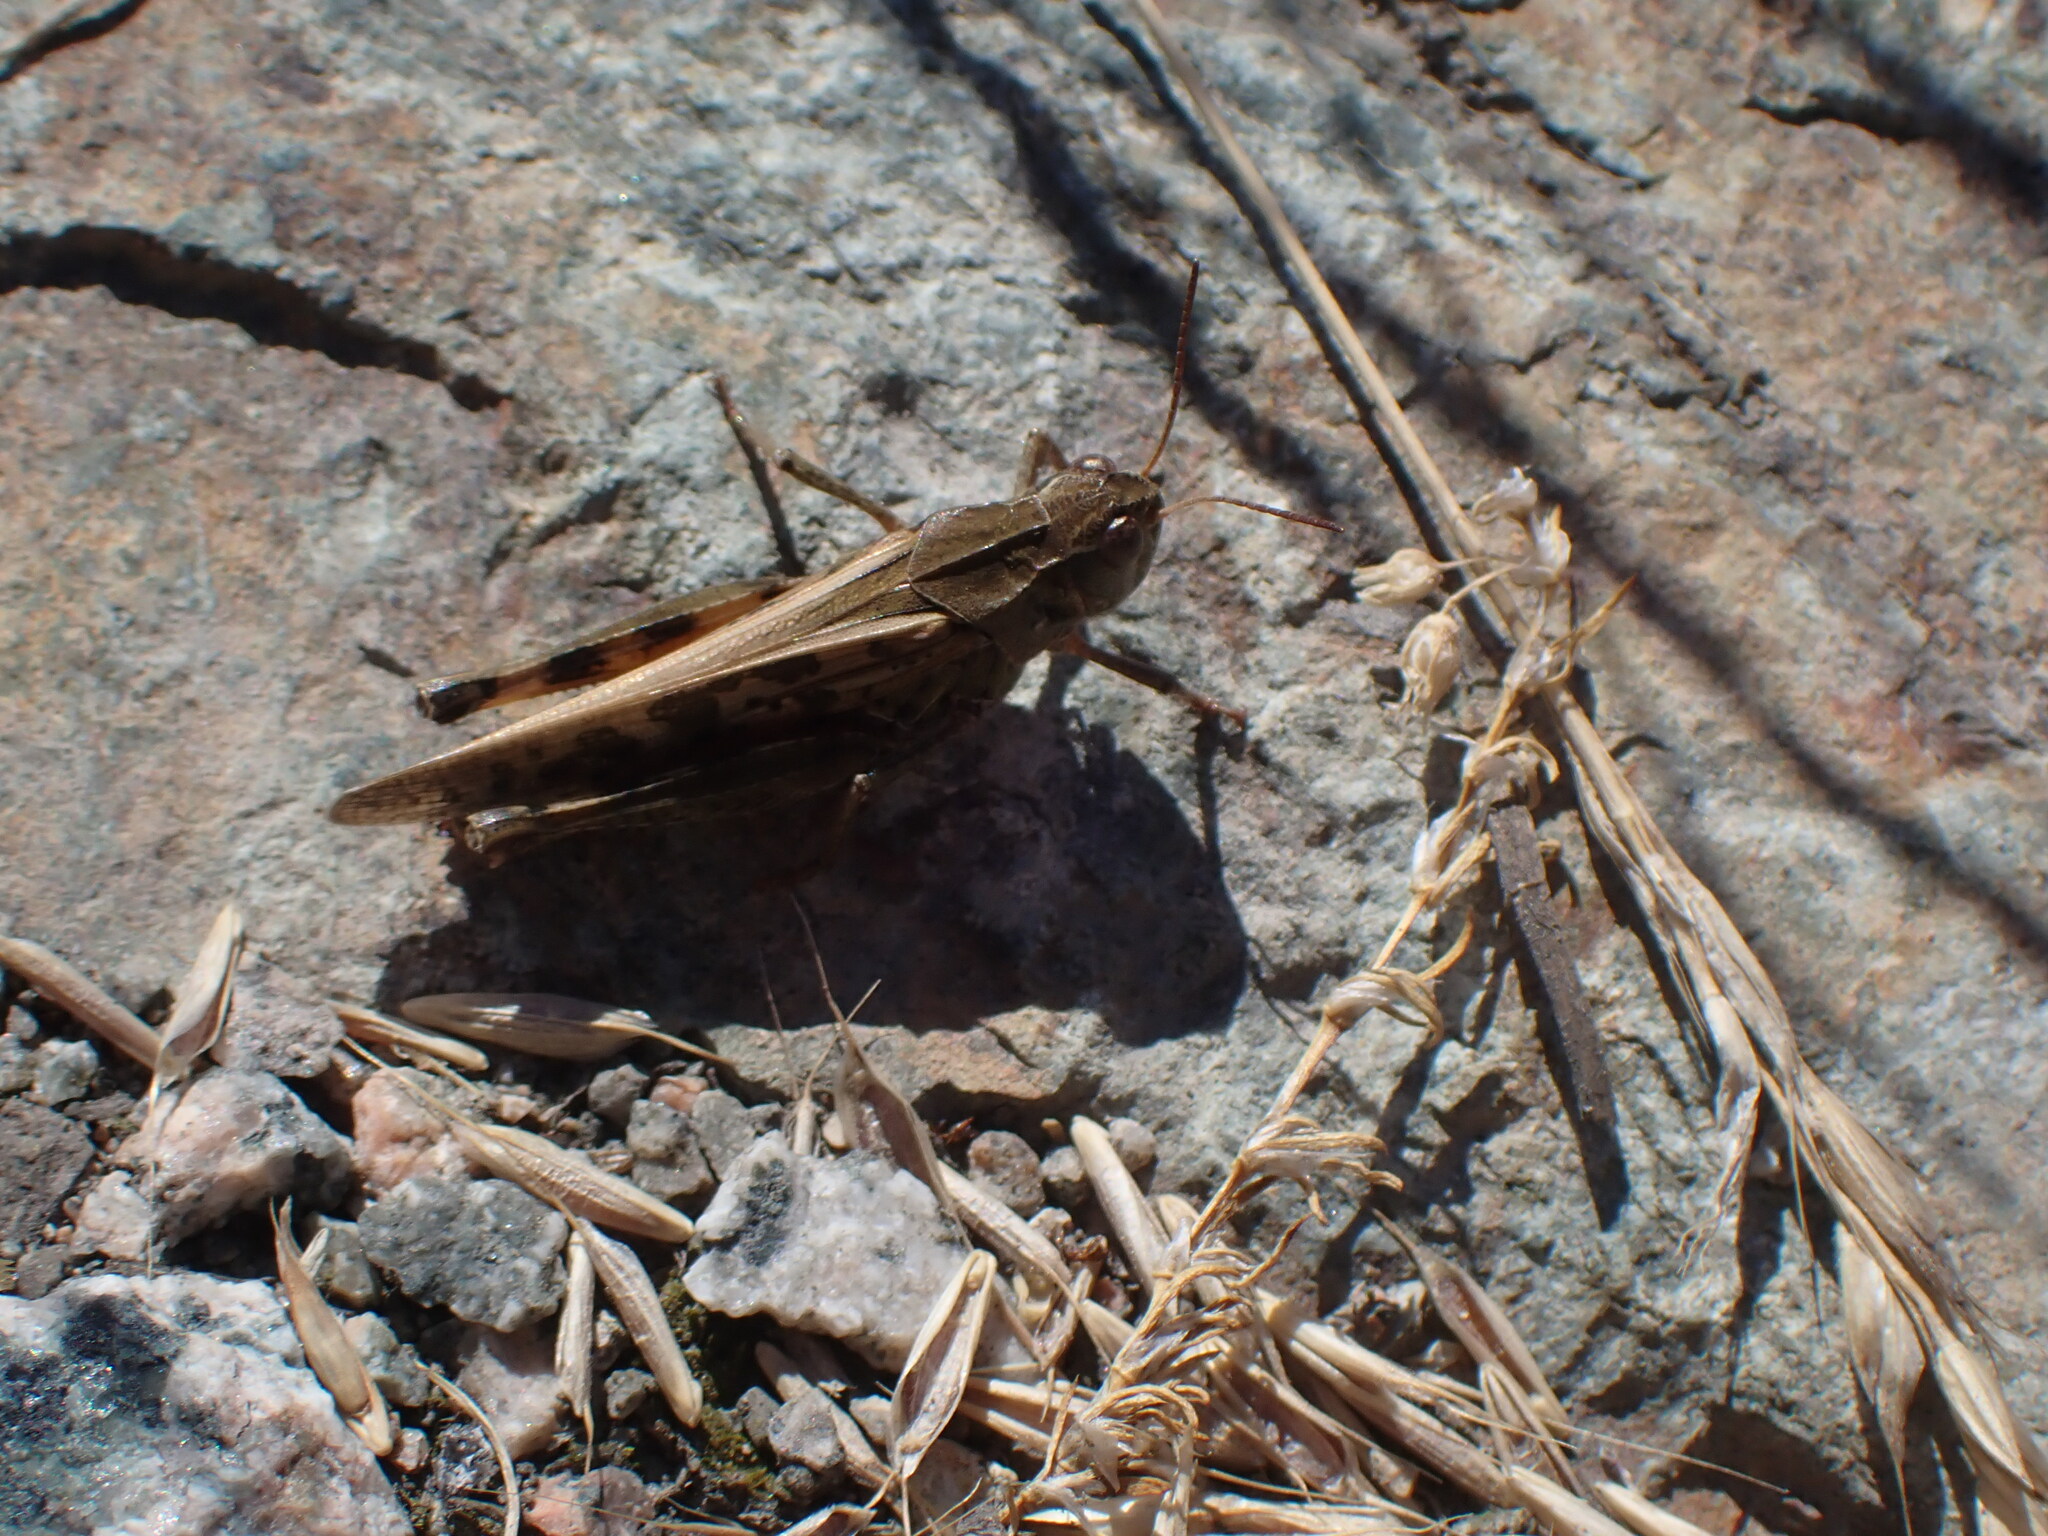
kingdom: Animalia
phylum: Arthropoda
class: Insecta
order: Orthoptera
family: Acrididae
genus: Camnula
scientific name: Camnula pellucida
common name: Clear-winged grasshopper
